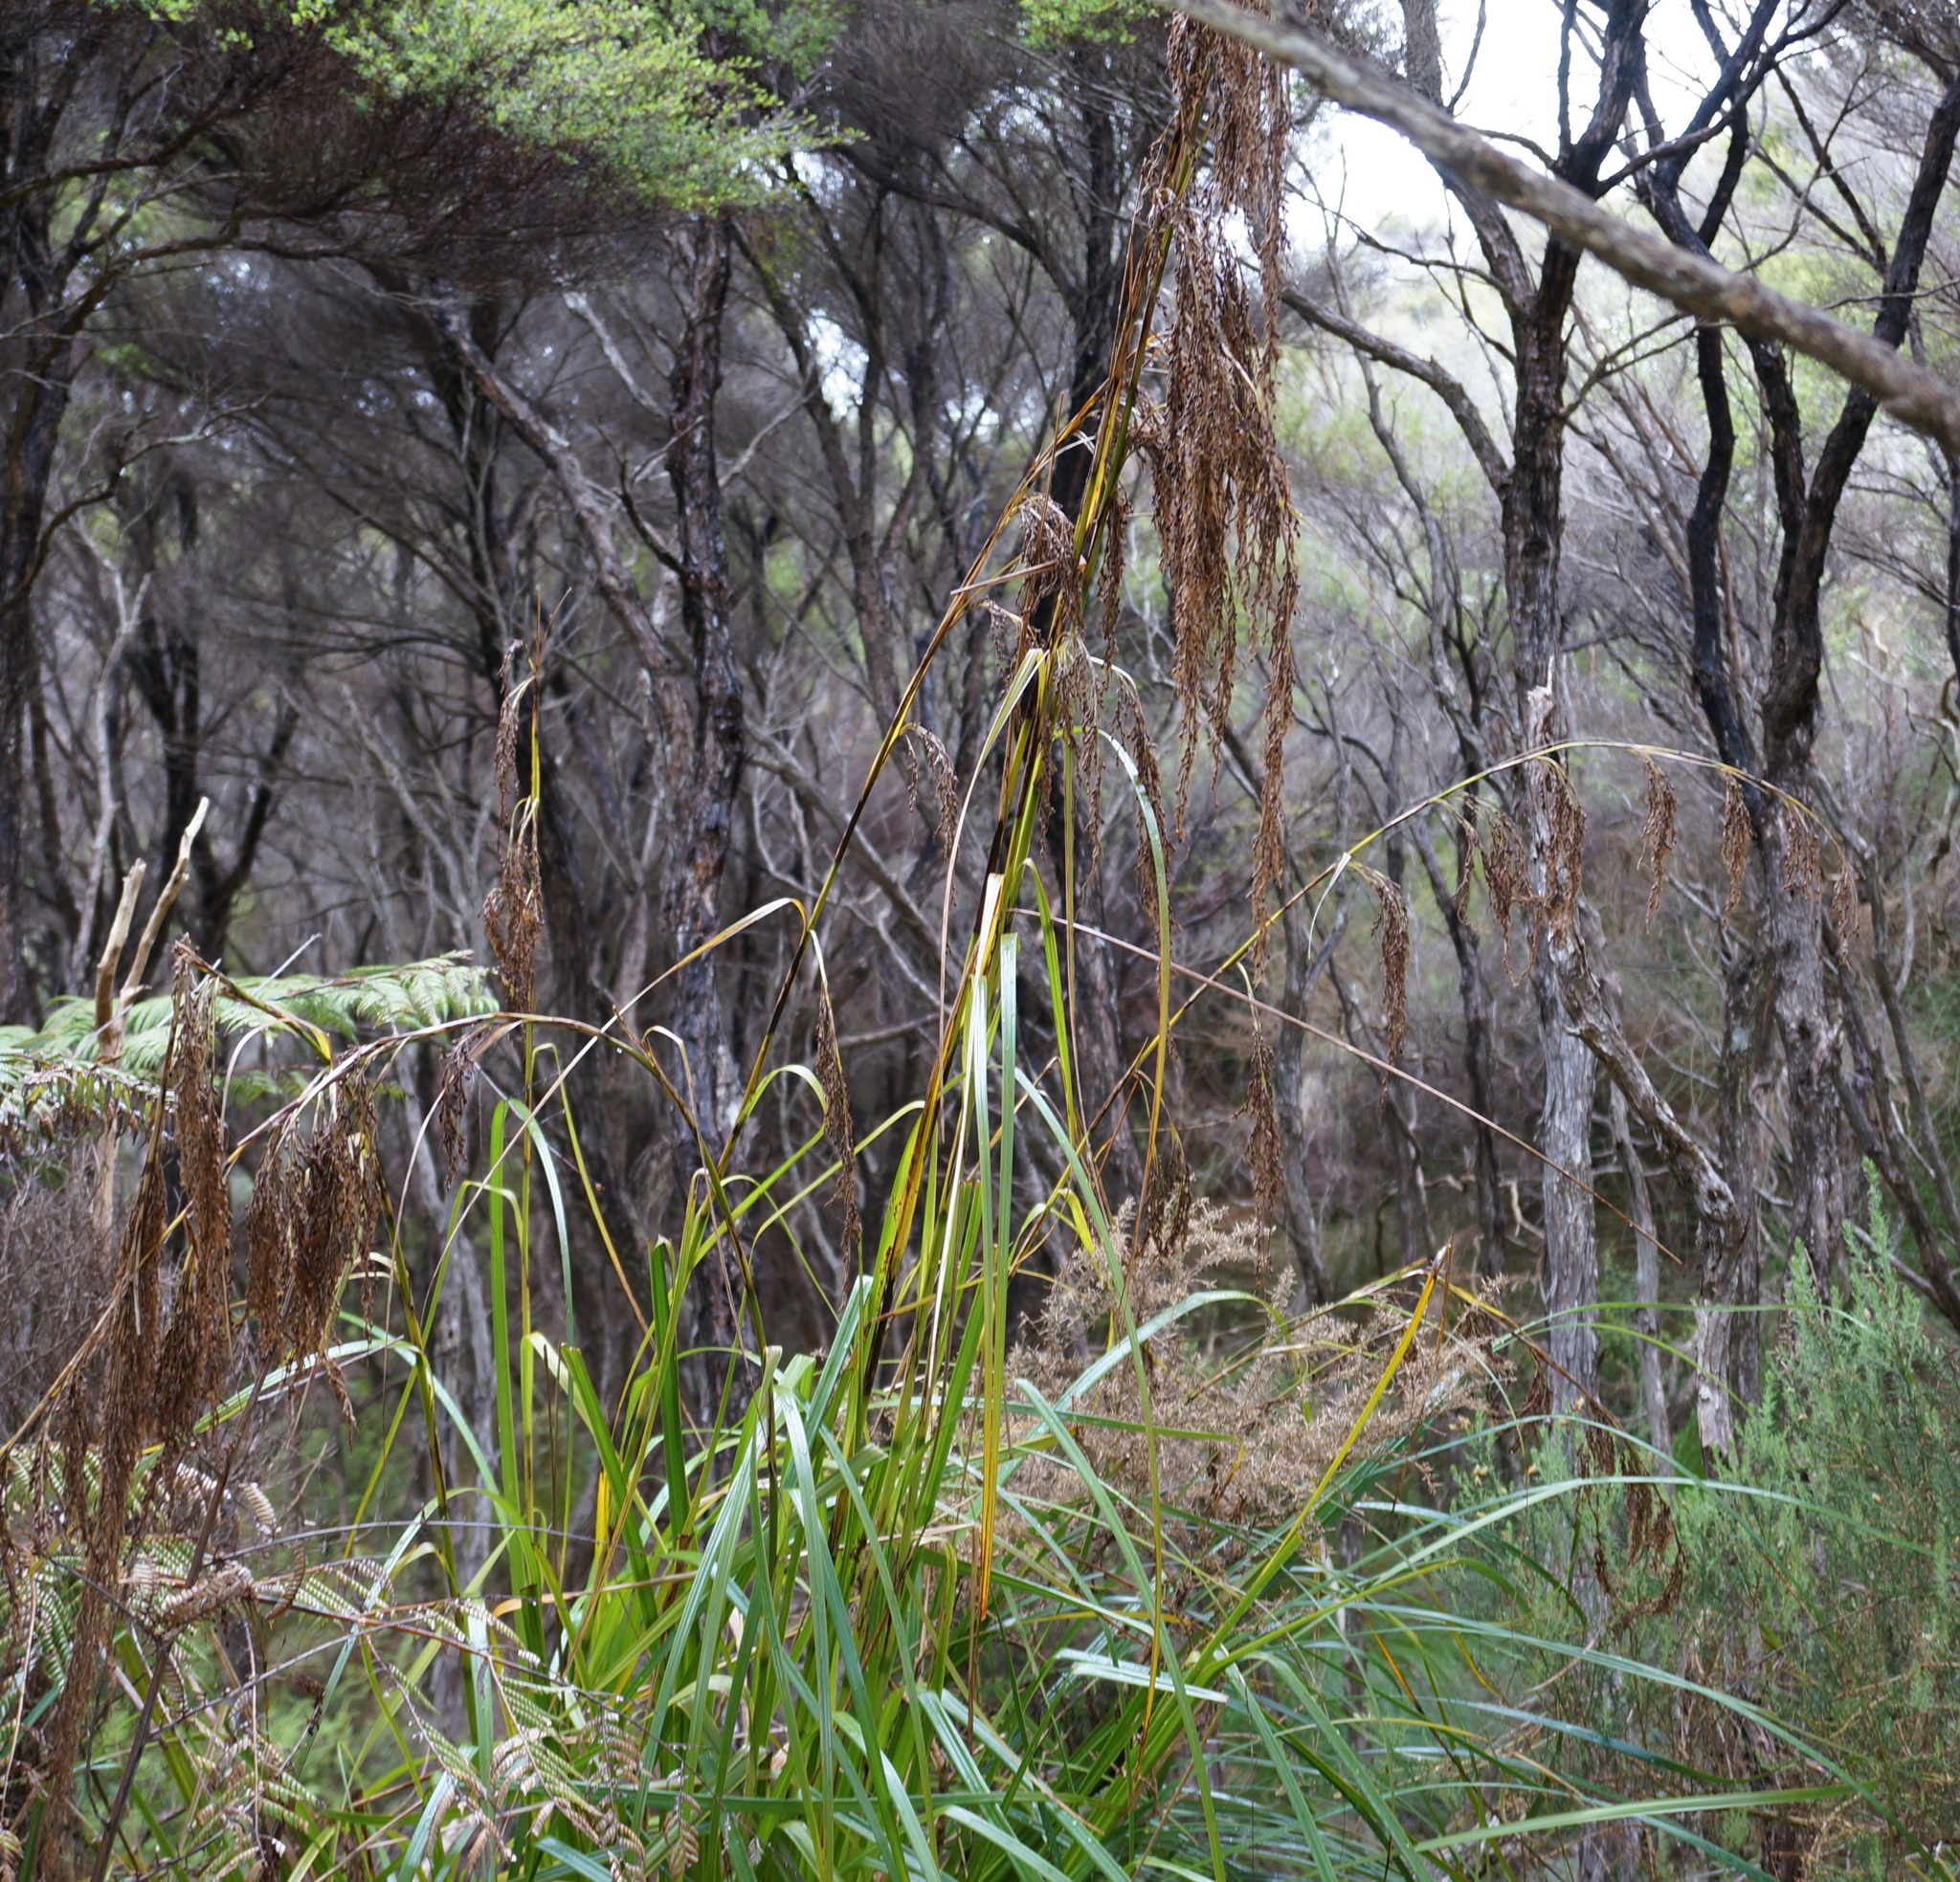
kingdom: Plantae
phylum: Tracheophyta
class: Liliopsida
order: Poales
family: Cyperaceae
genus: Gahnia
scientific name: Gahnia xanthocarpa
